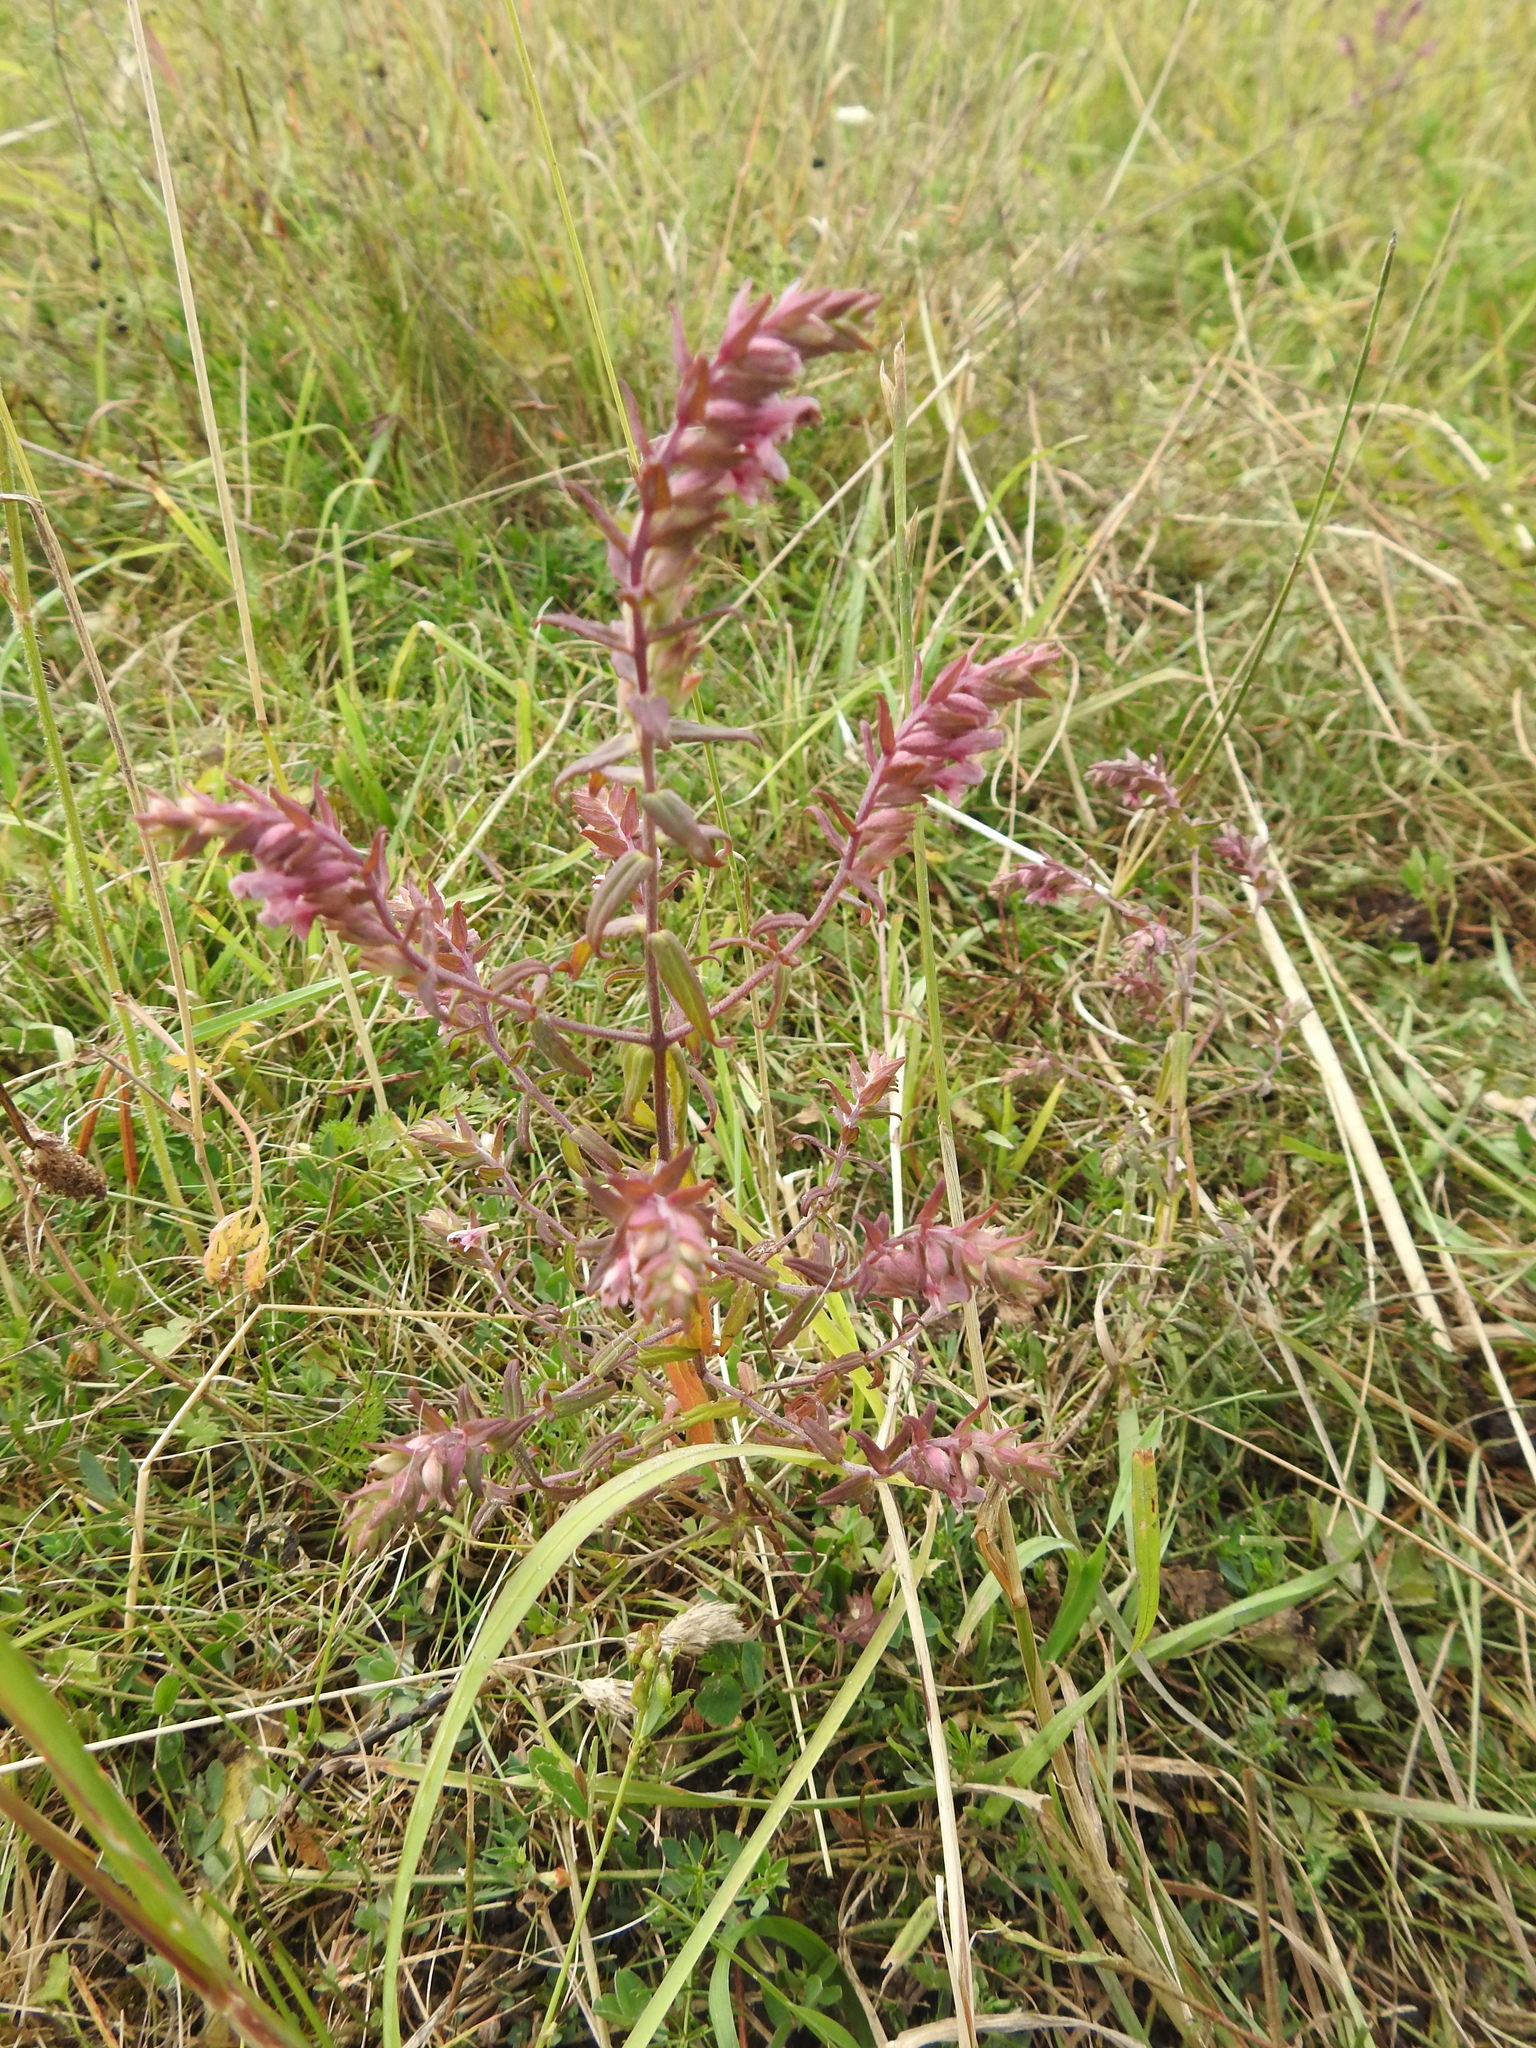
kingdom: Plantae
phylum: Tracheophyta
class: Magnoliopsida
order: Lamiales
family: Orobanchaceae
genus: Odontites
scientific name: Odontites vulgaris
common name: Broomrape
